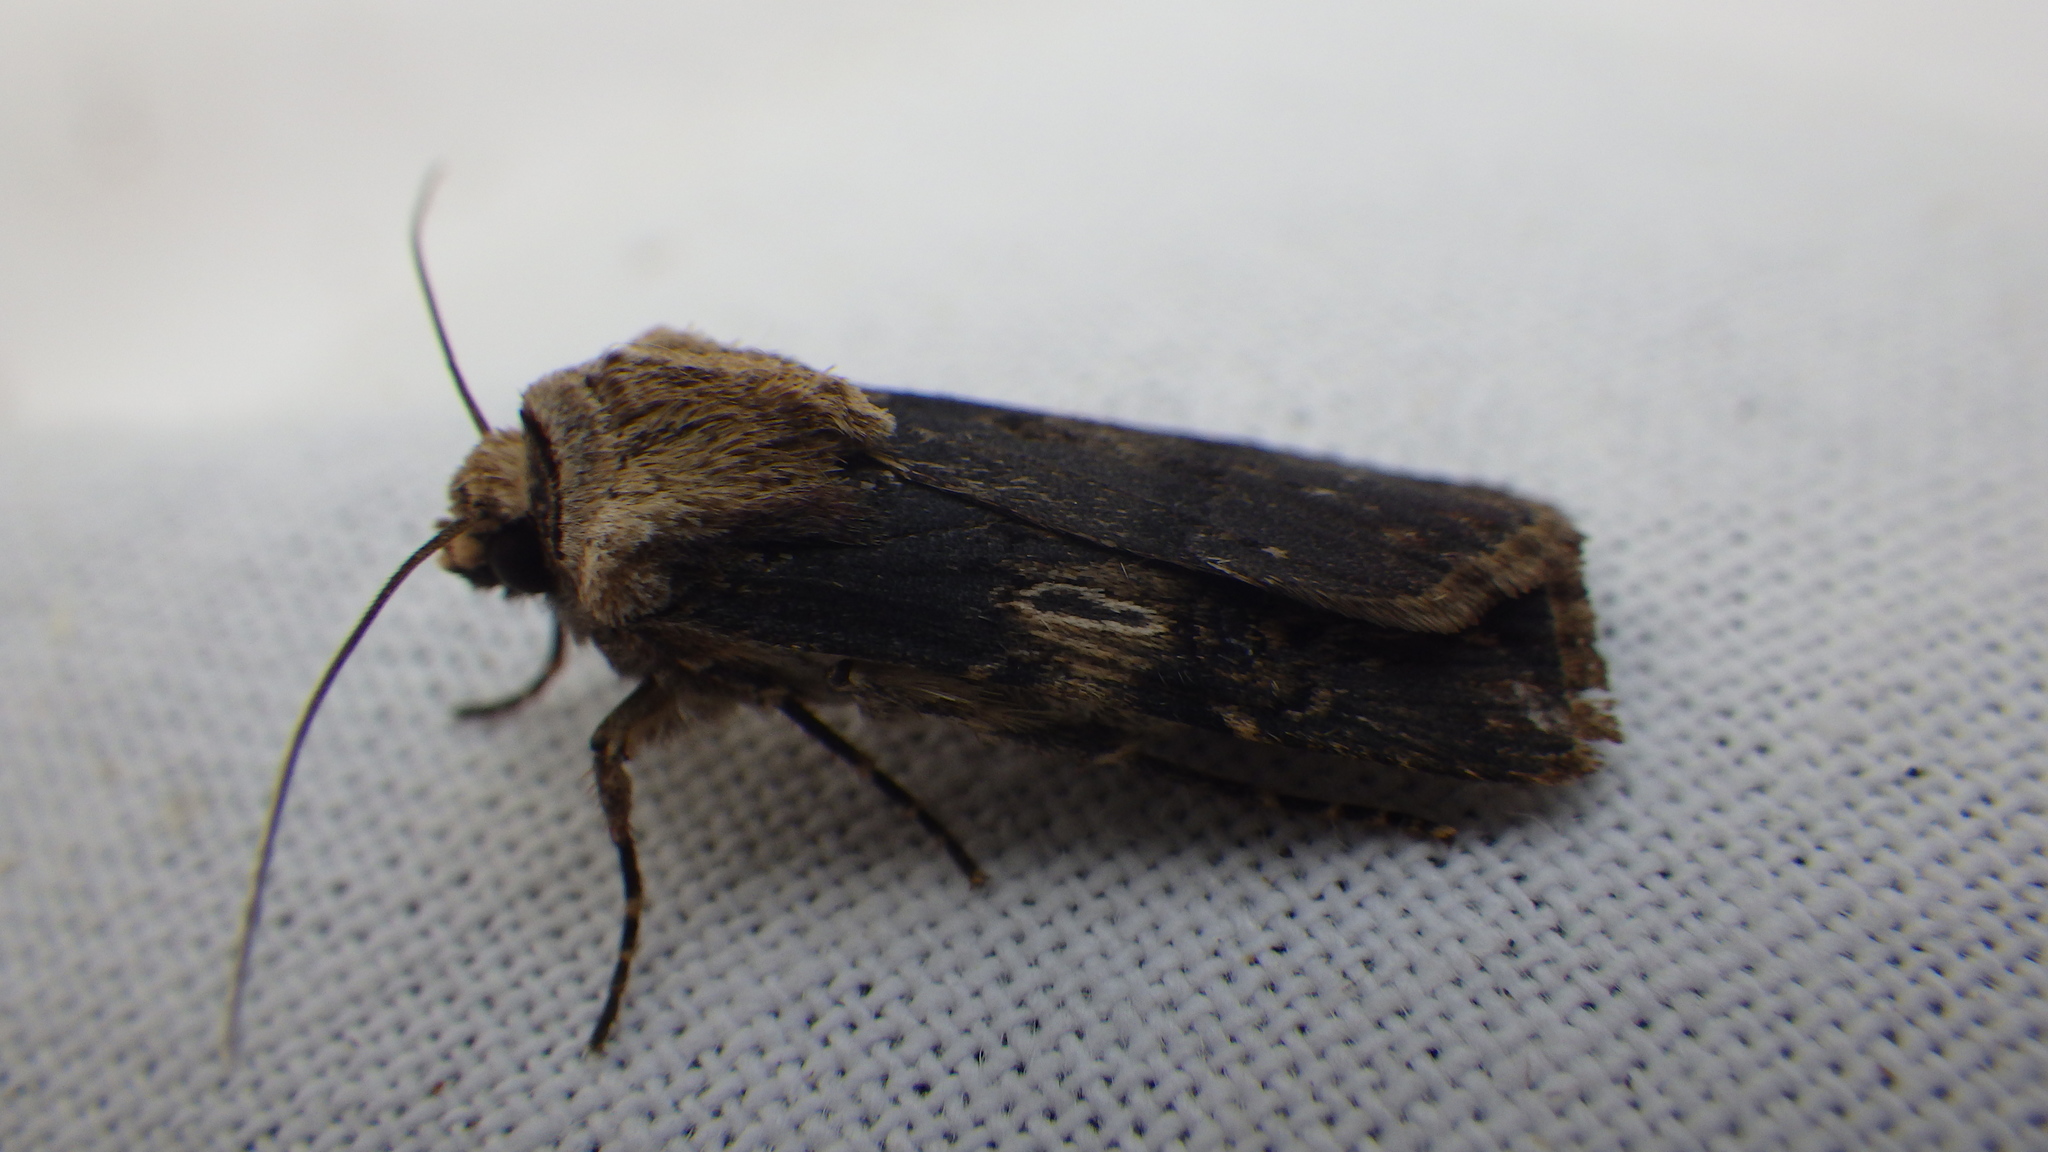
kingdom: Animalia
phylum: Arthropoda
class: Insecta
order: Lepidoptera
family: Noctuidae
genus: Agrotis
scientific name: Agrotis puta
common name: Shuttle-shaped dart
